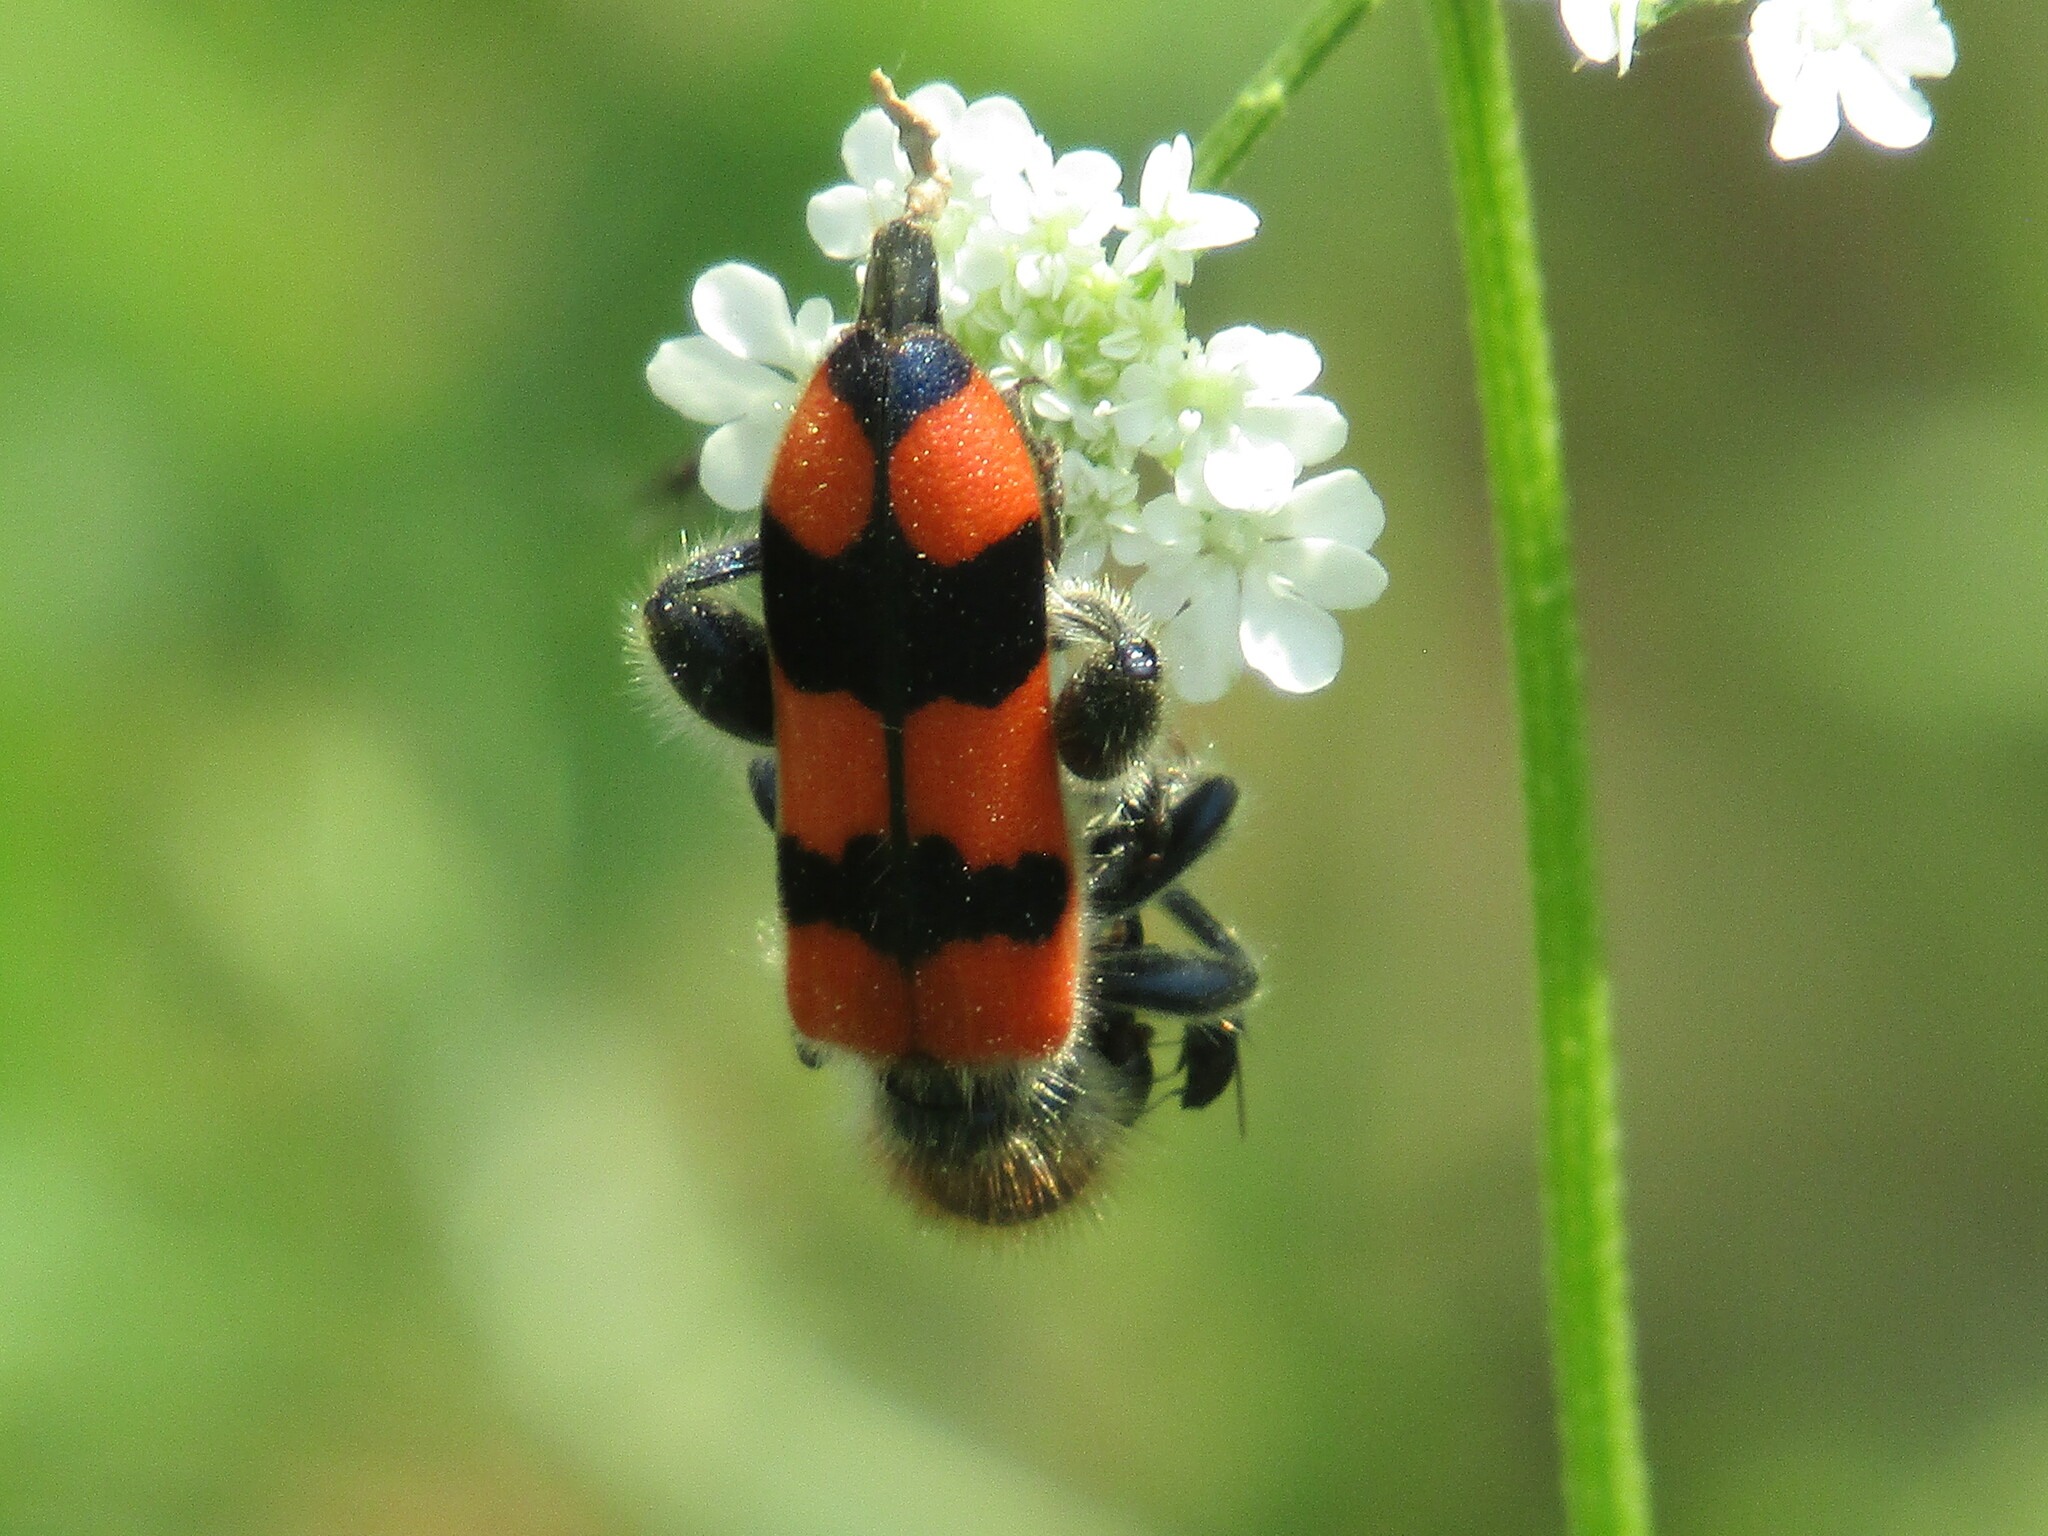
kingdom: Animalia
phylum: Arthropoda
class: Insecta
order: Coleoptera
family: Cleridae
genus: Trichodes
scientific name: Trichodes crabroniformis
